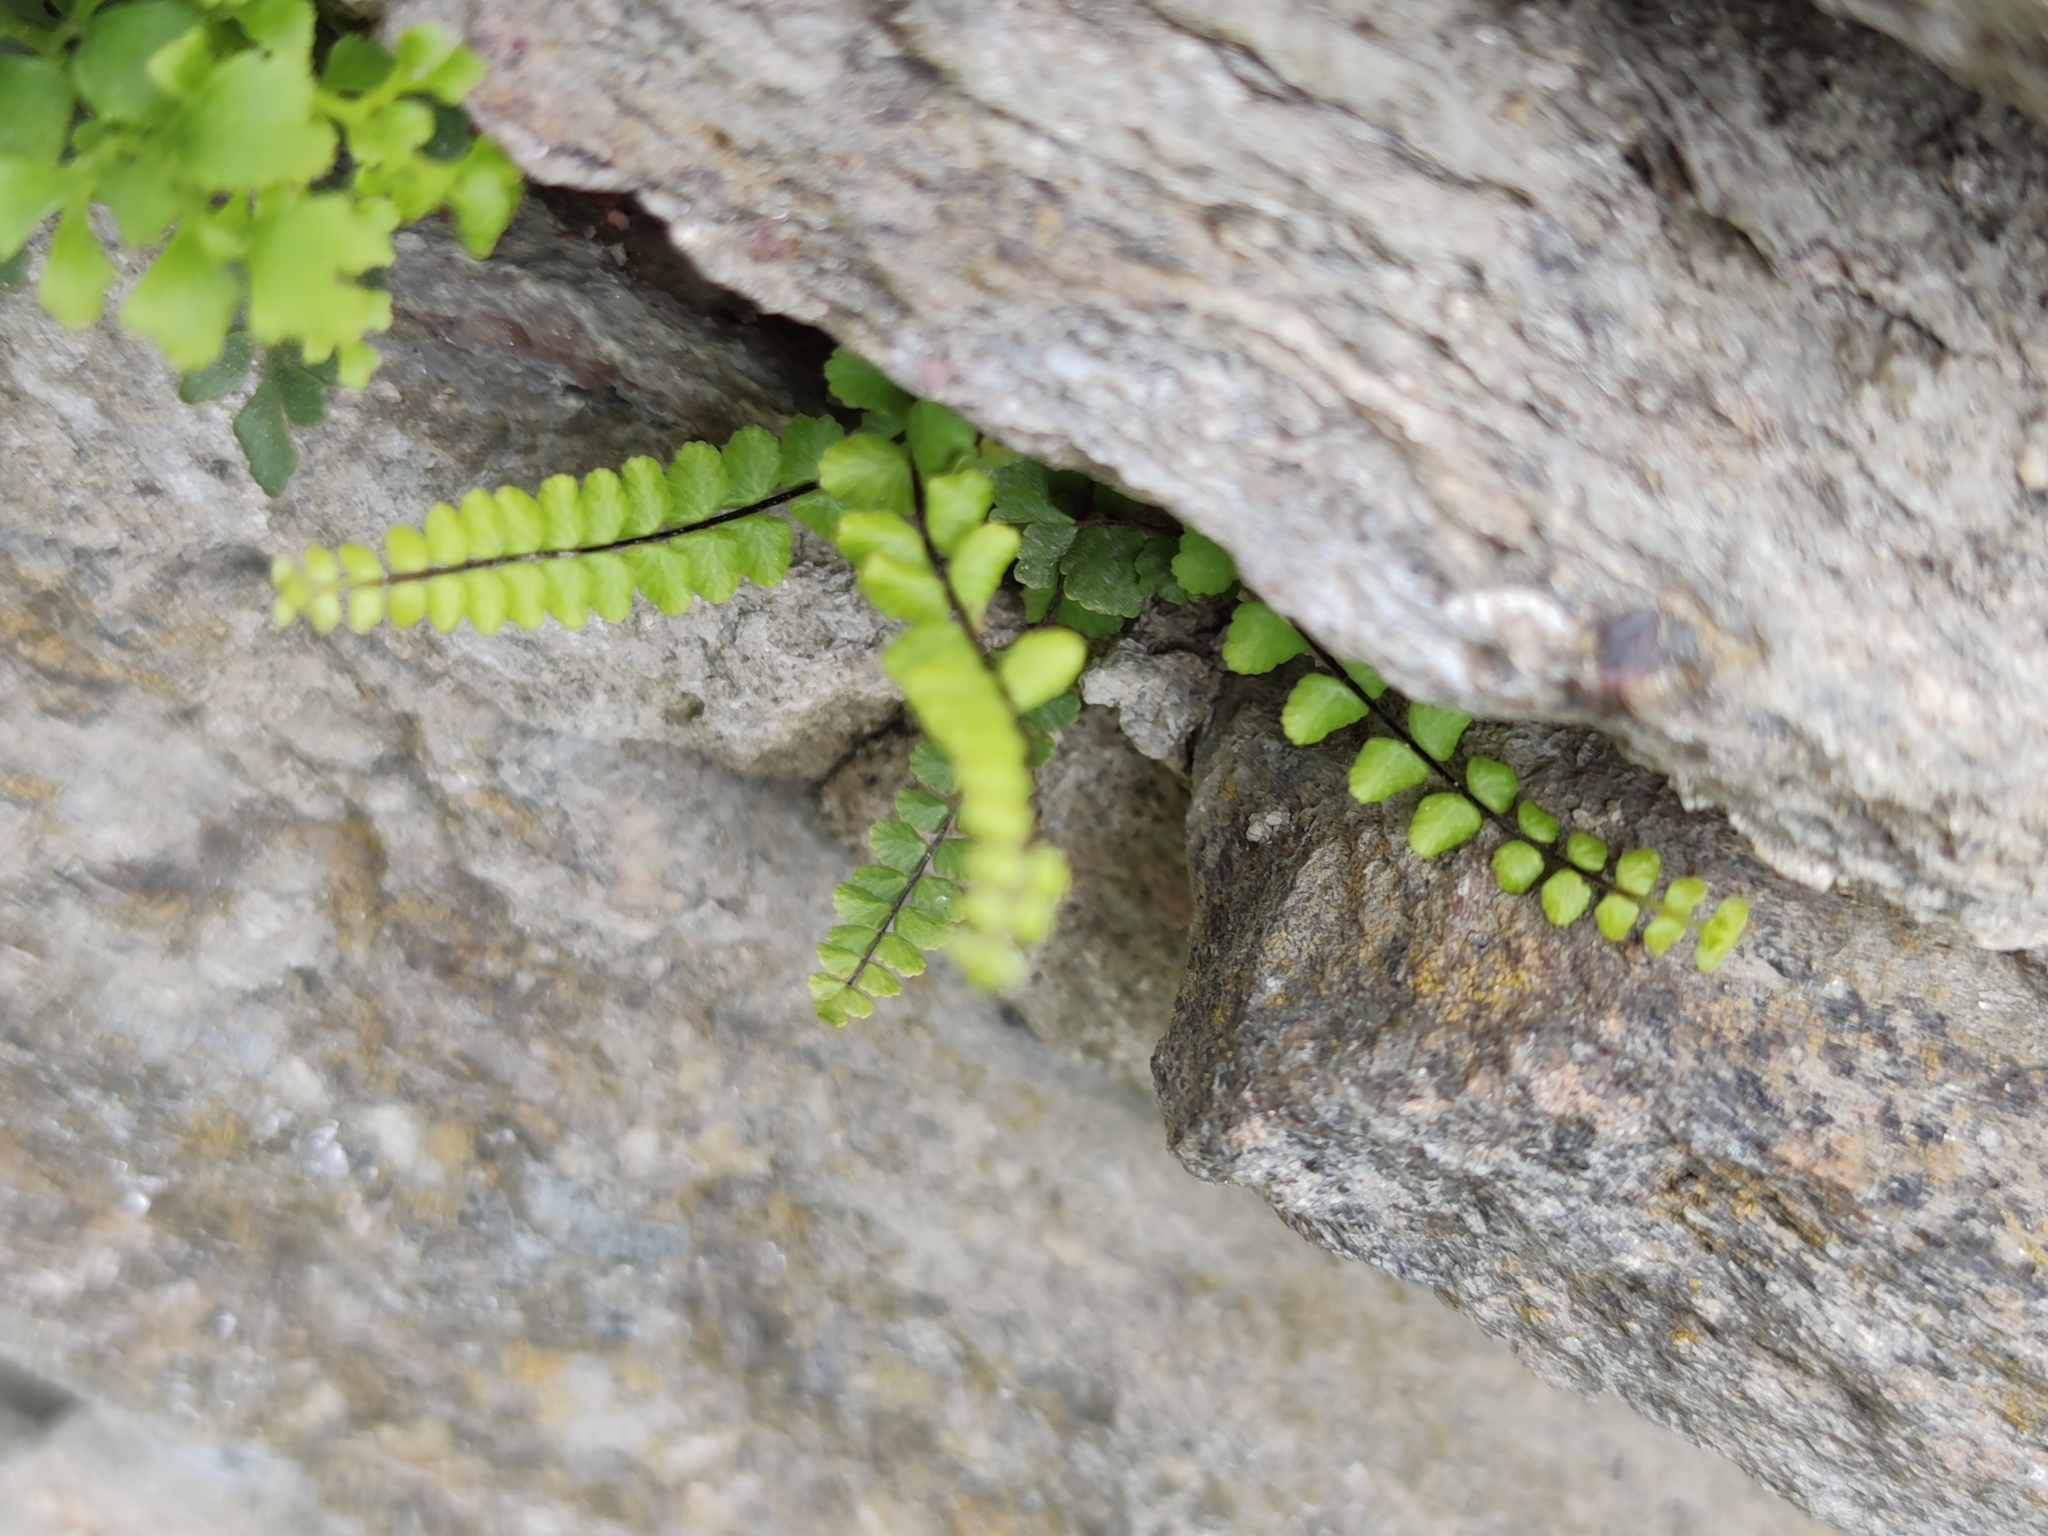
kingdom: Plantae
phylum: Tracheophyta
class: Polypodiopsida
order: Polypodiales
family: Aspleniaceae
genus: Asplenium
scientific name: Asplenium trichomanes
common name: Maidenhair spleenwort
